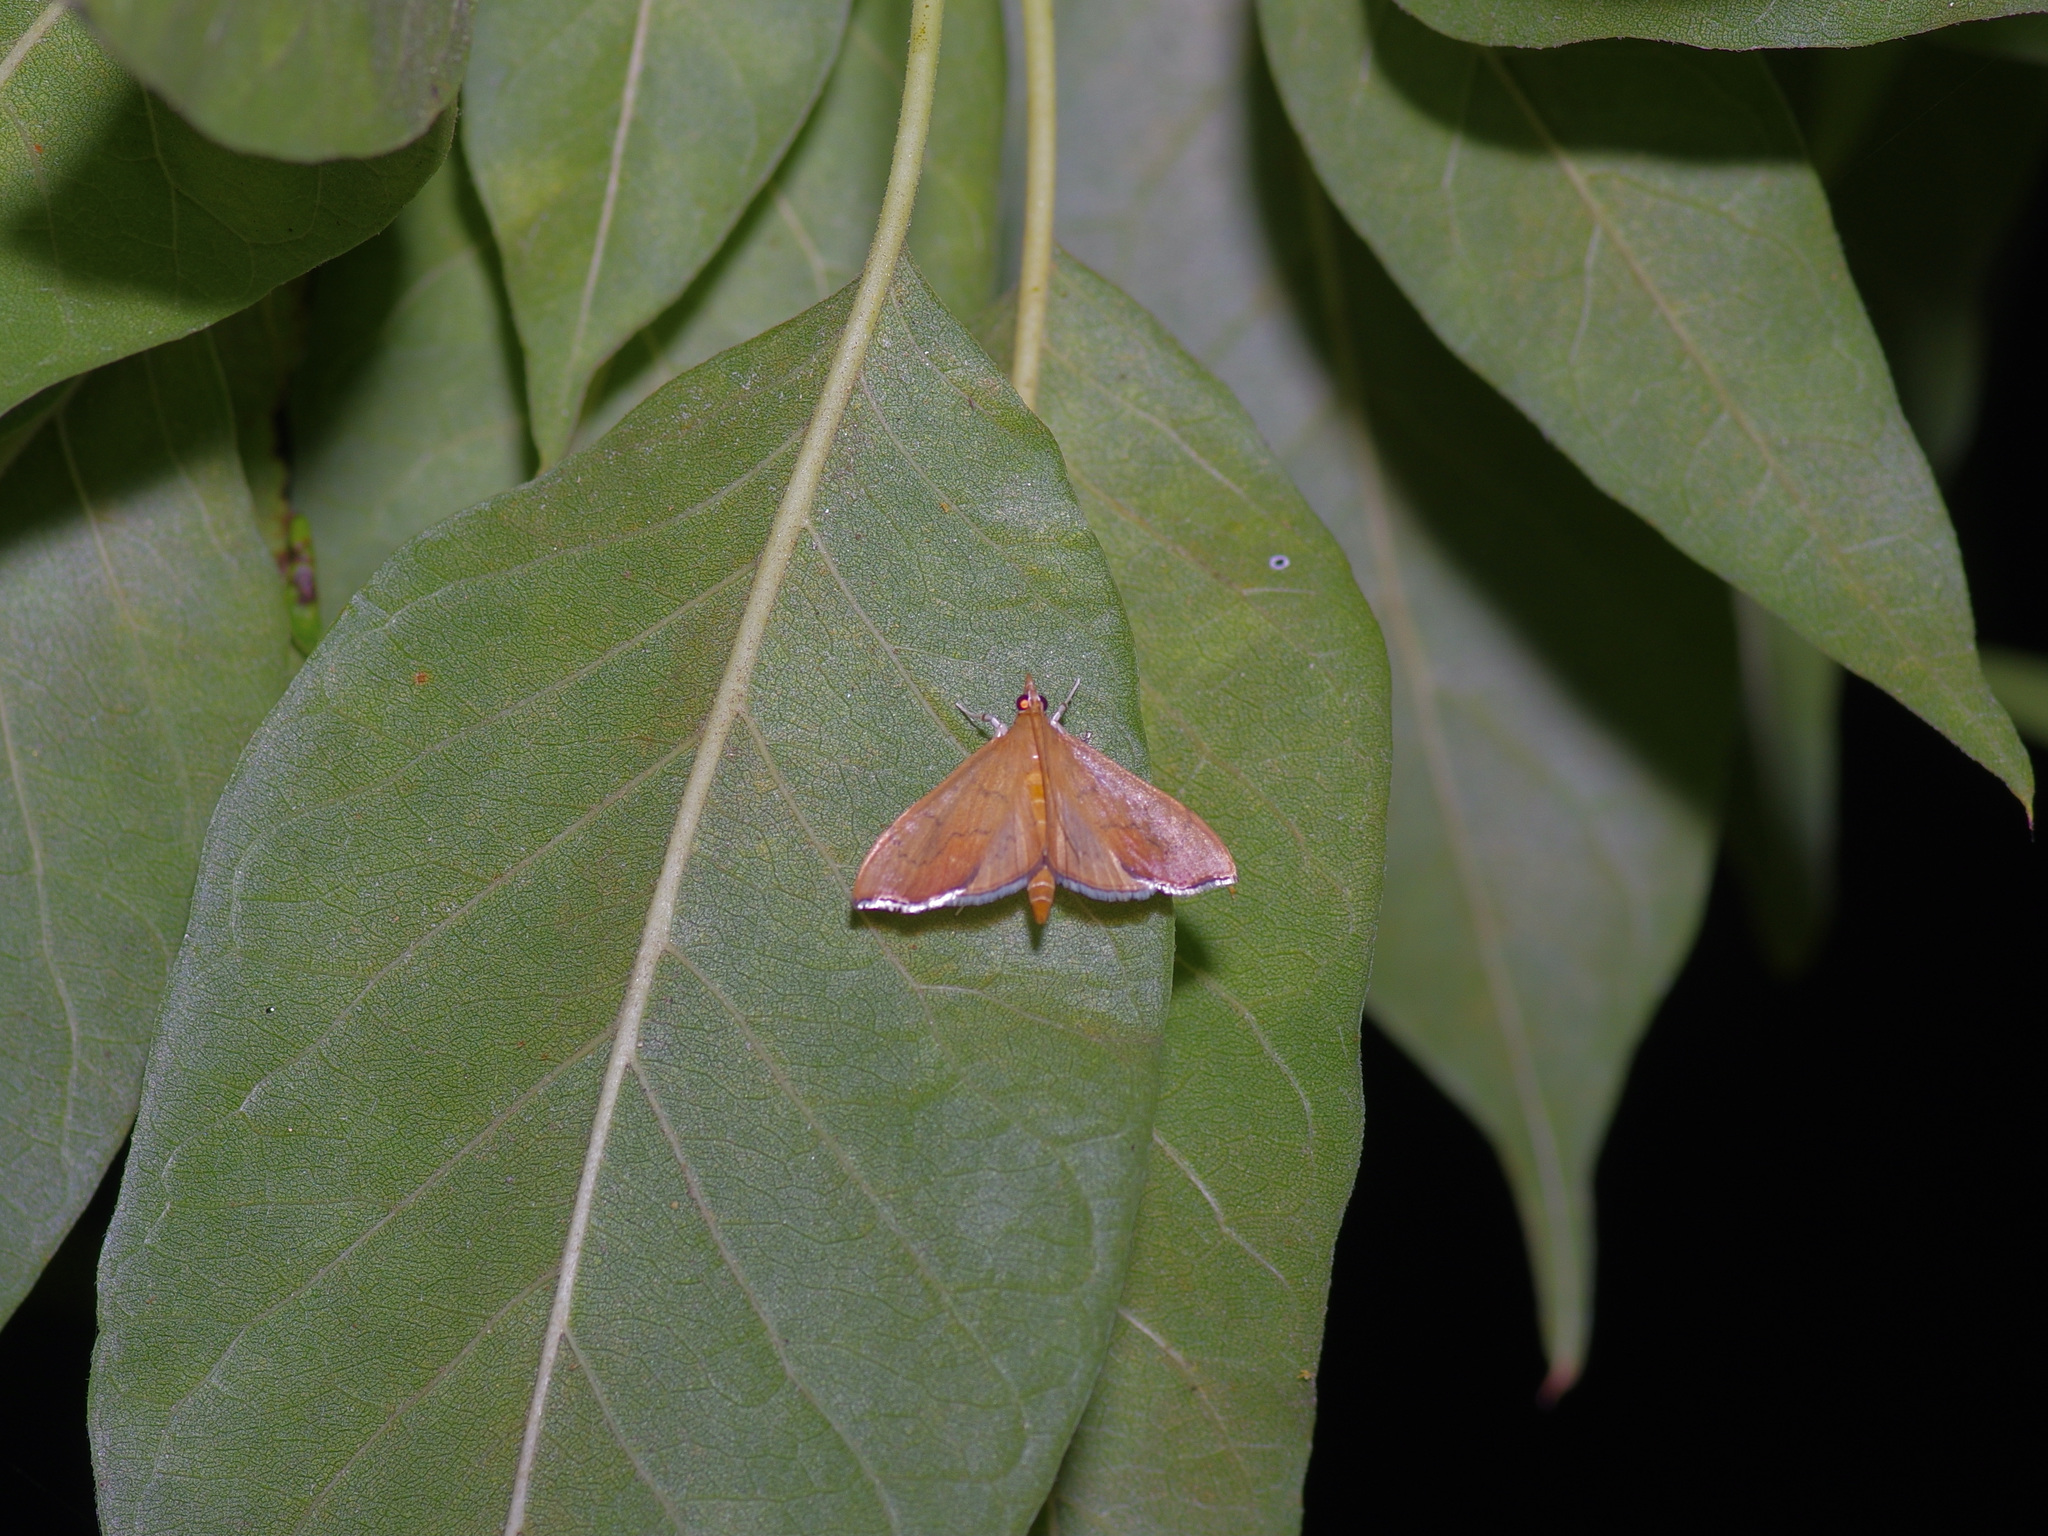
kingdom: Animalia
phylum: Arthropoda
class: Insecta
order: Lepidoptera
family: Crambidae
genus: Sericoplaga
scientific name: Sericoplaga externalis
